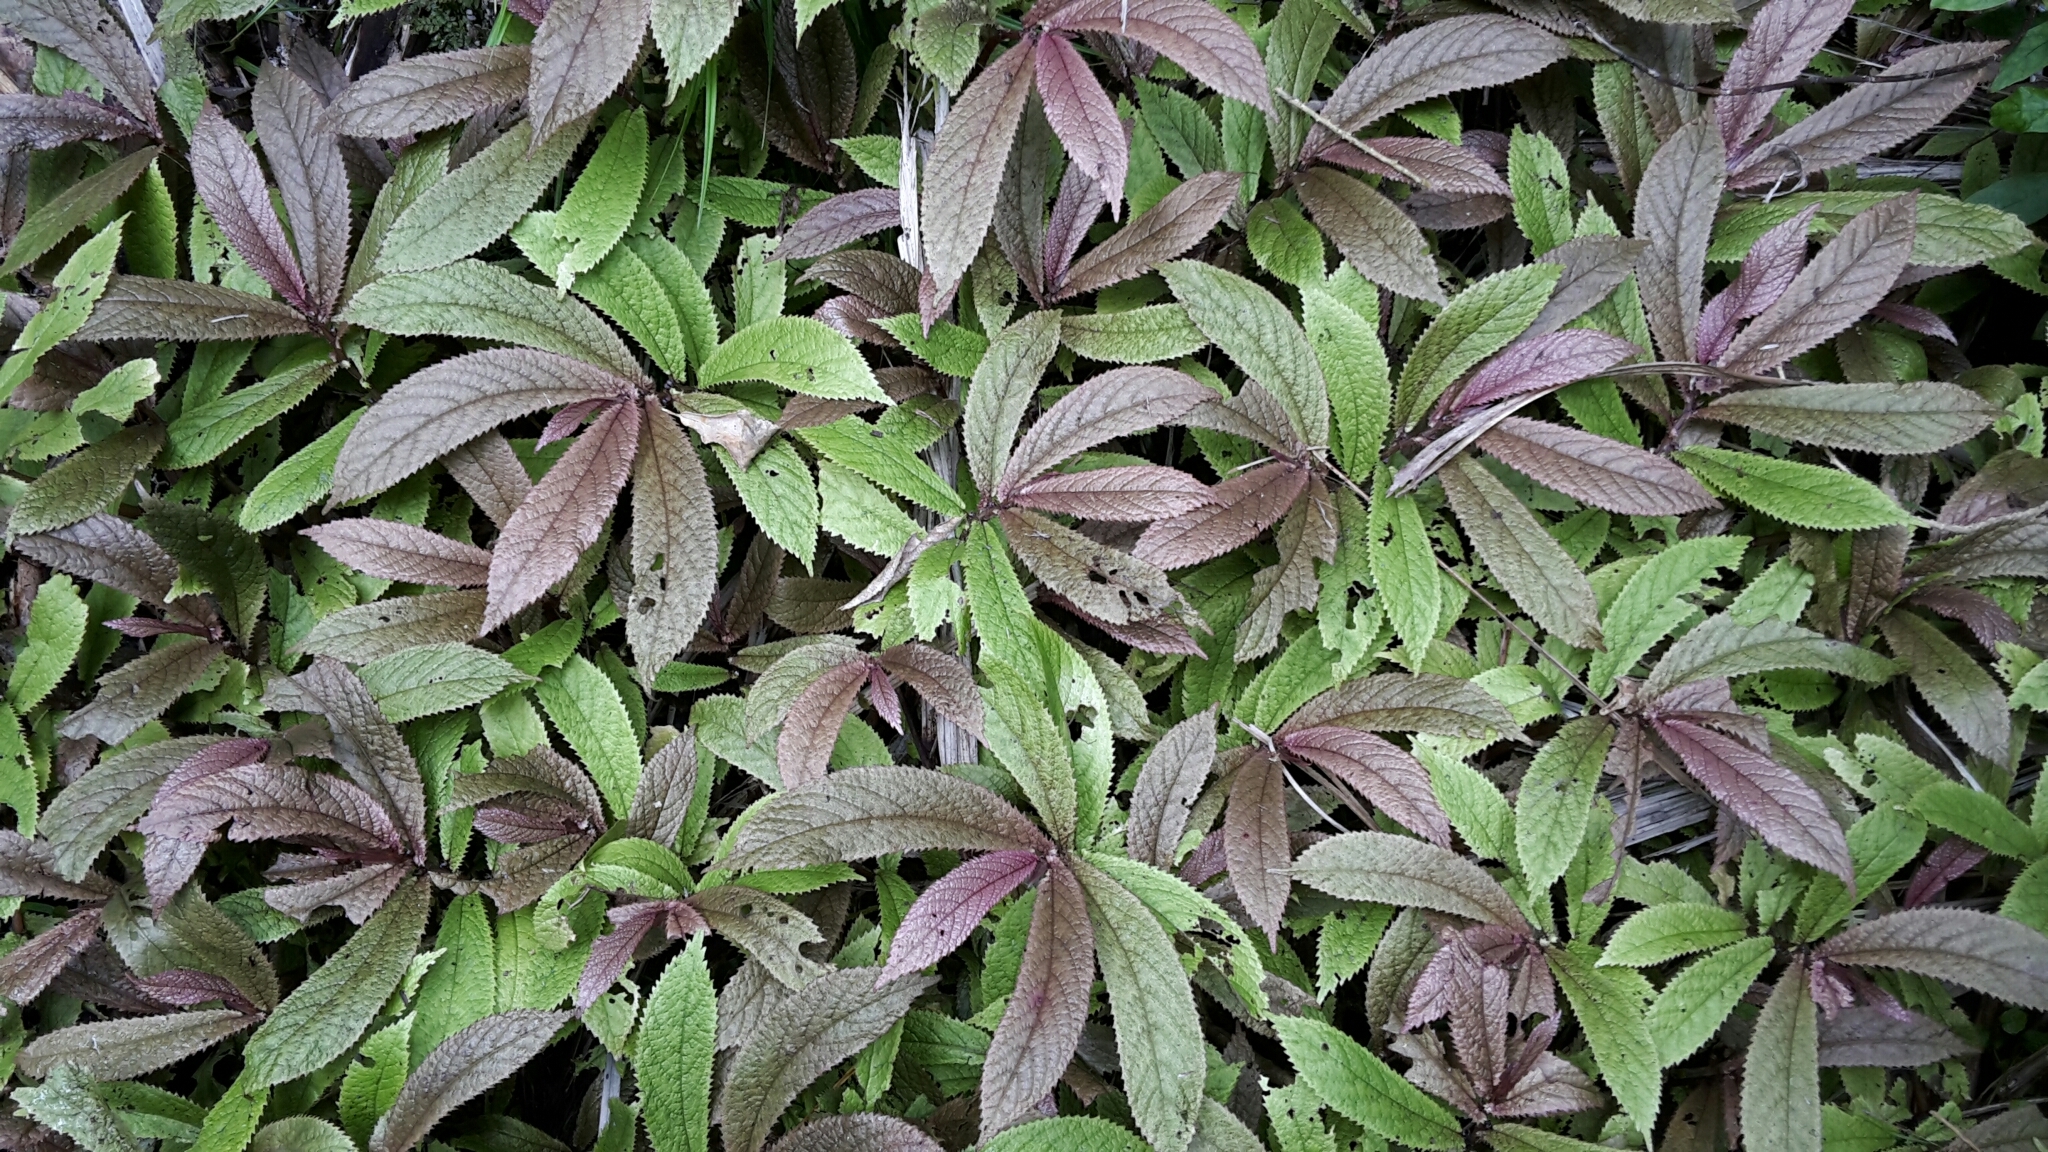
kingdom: Plantae
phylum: Tracheophyta
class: Magnoliopsida
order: Rosales
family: Urticaceae
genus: Elatostema
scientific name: Elatostema rugosum
